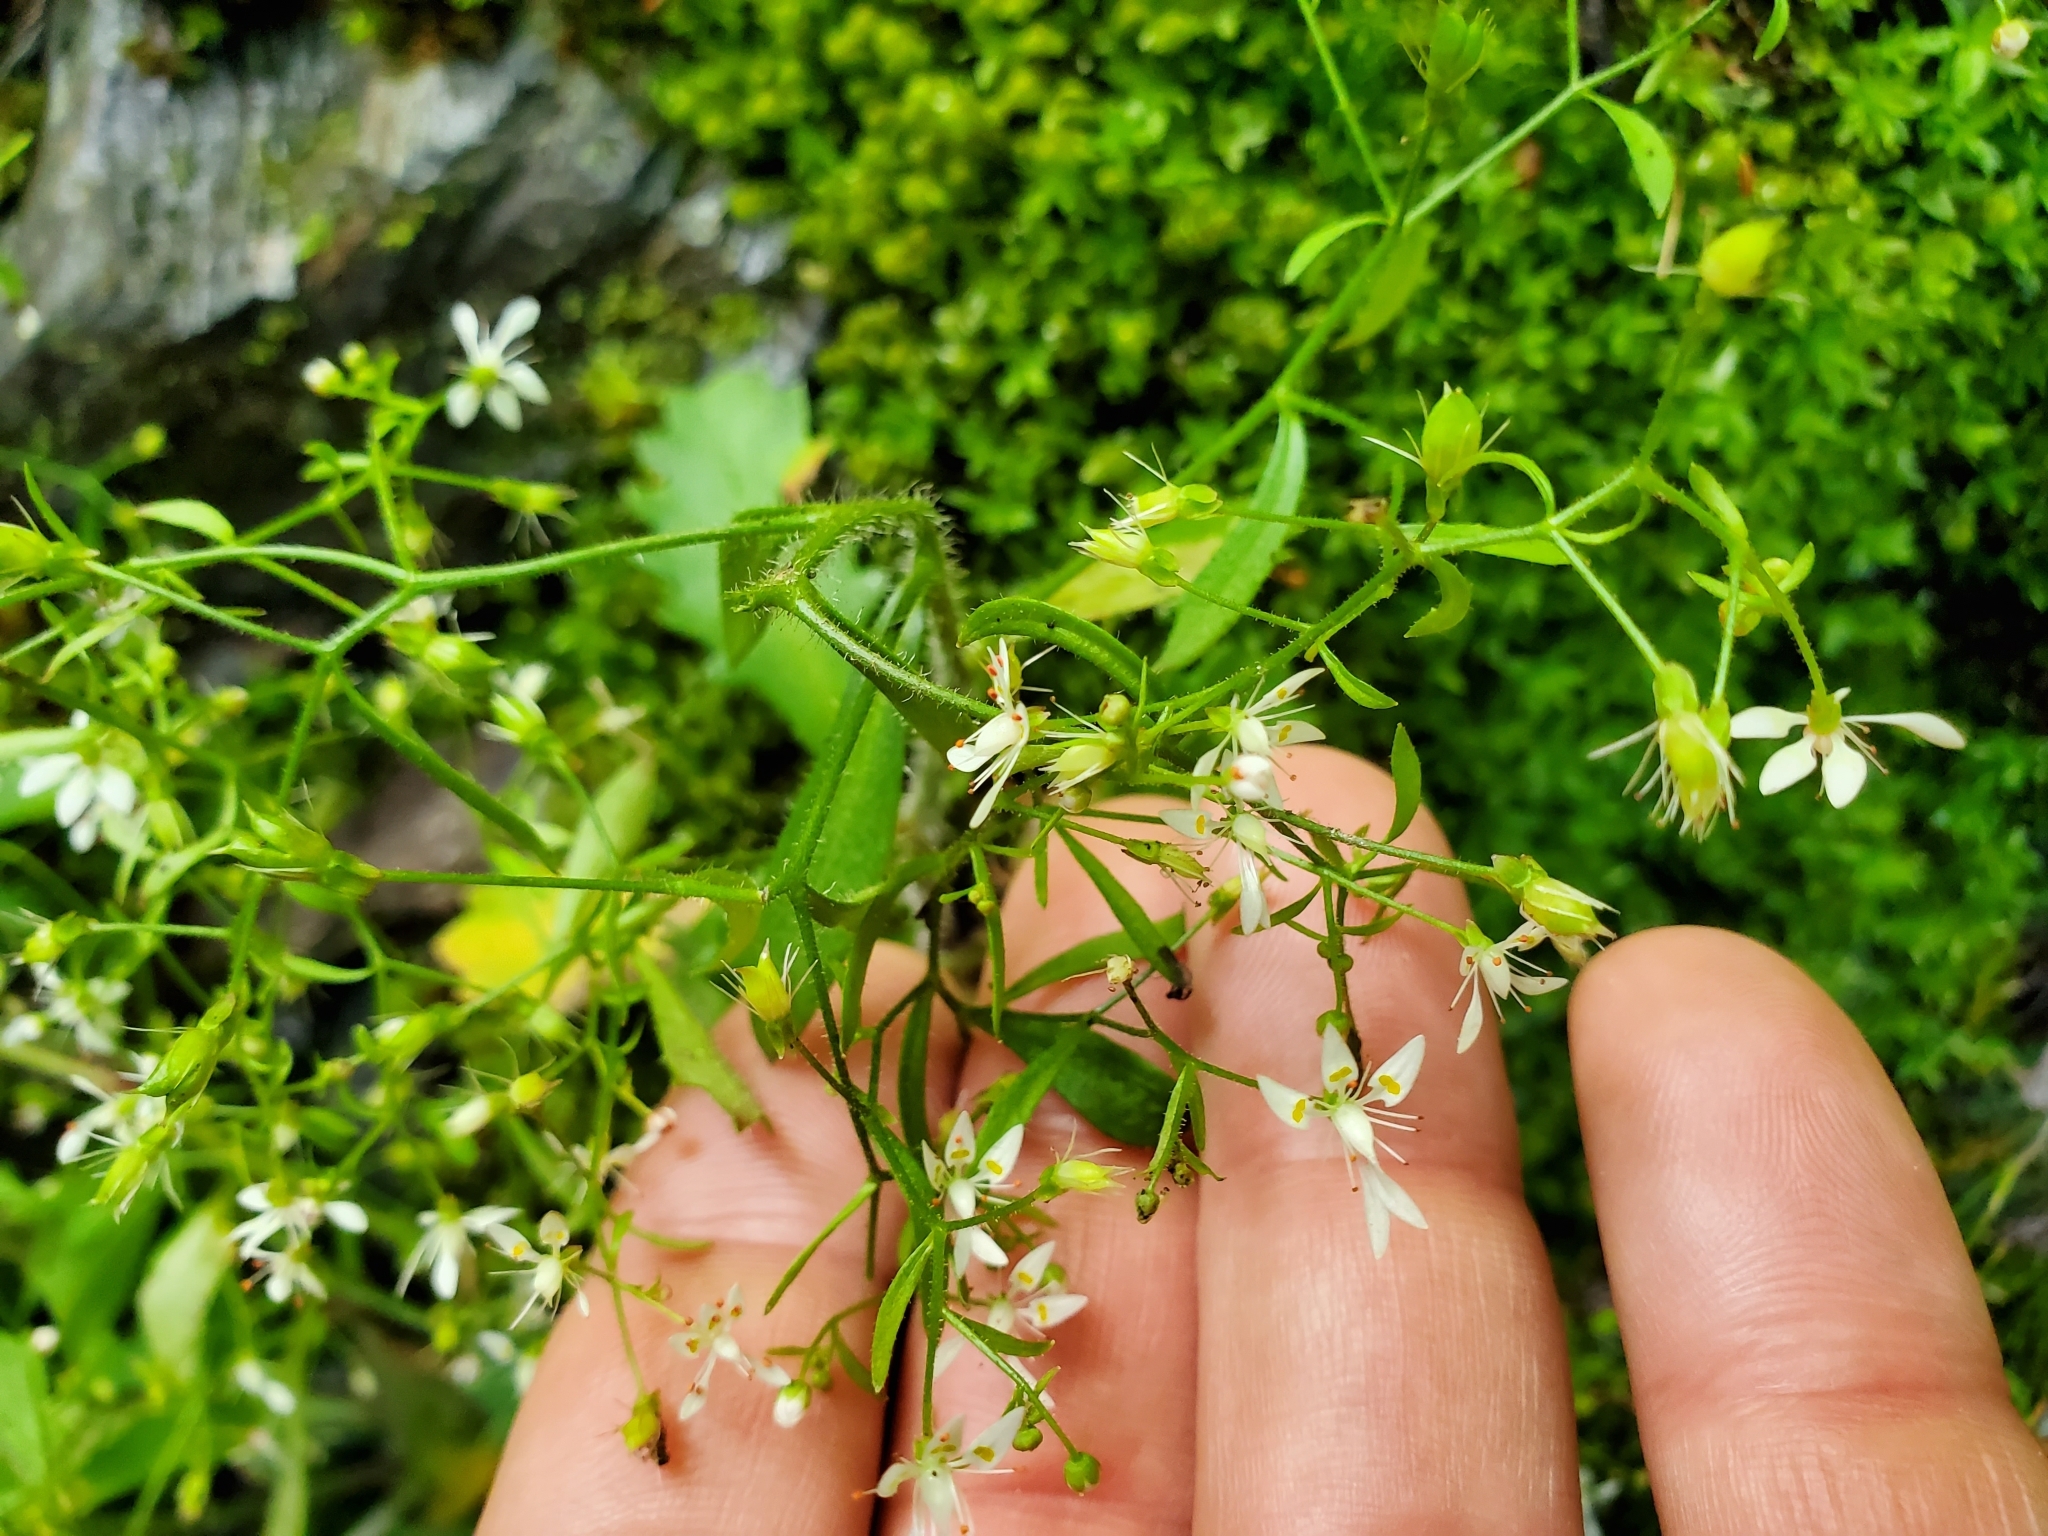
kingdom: Plantae
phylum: Tracheophyta
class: Magnoliopsida
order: Saxifragales
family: Saxifragaceae
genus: Micranthes
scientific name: Micranthes petiolaris
